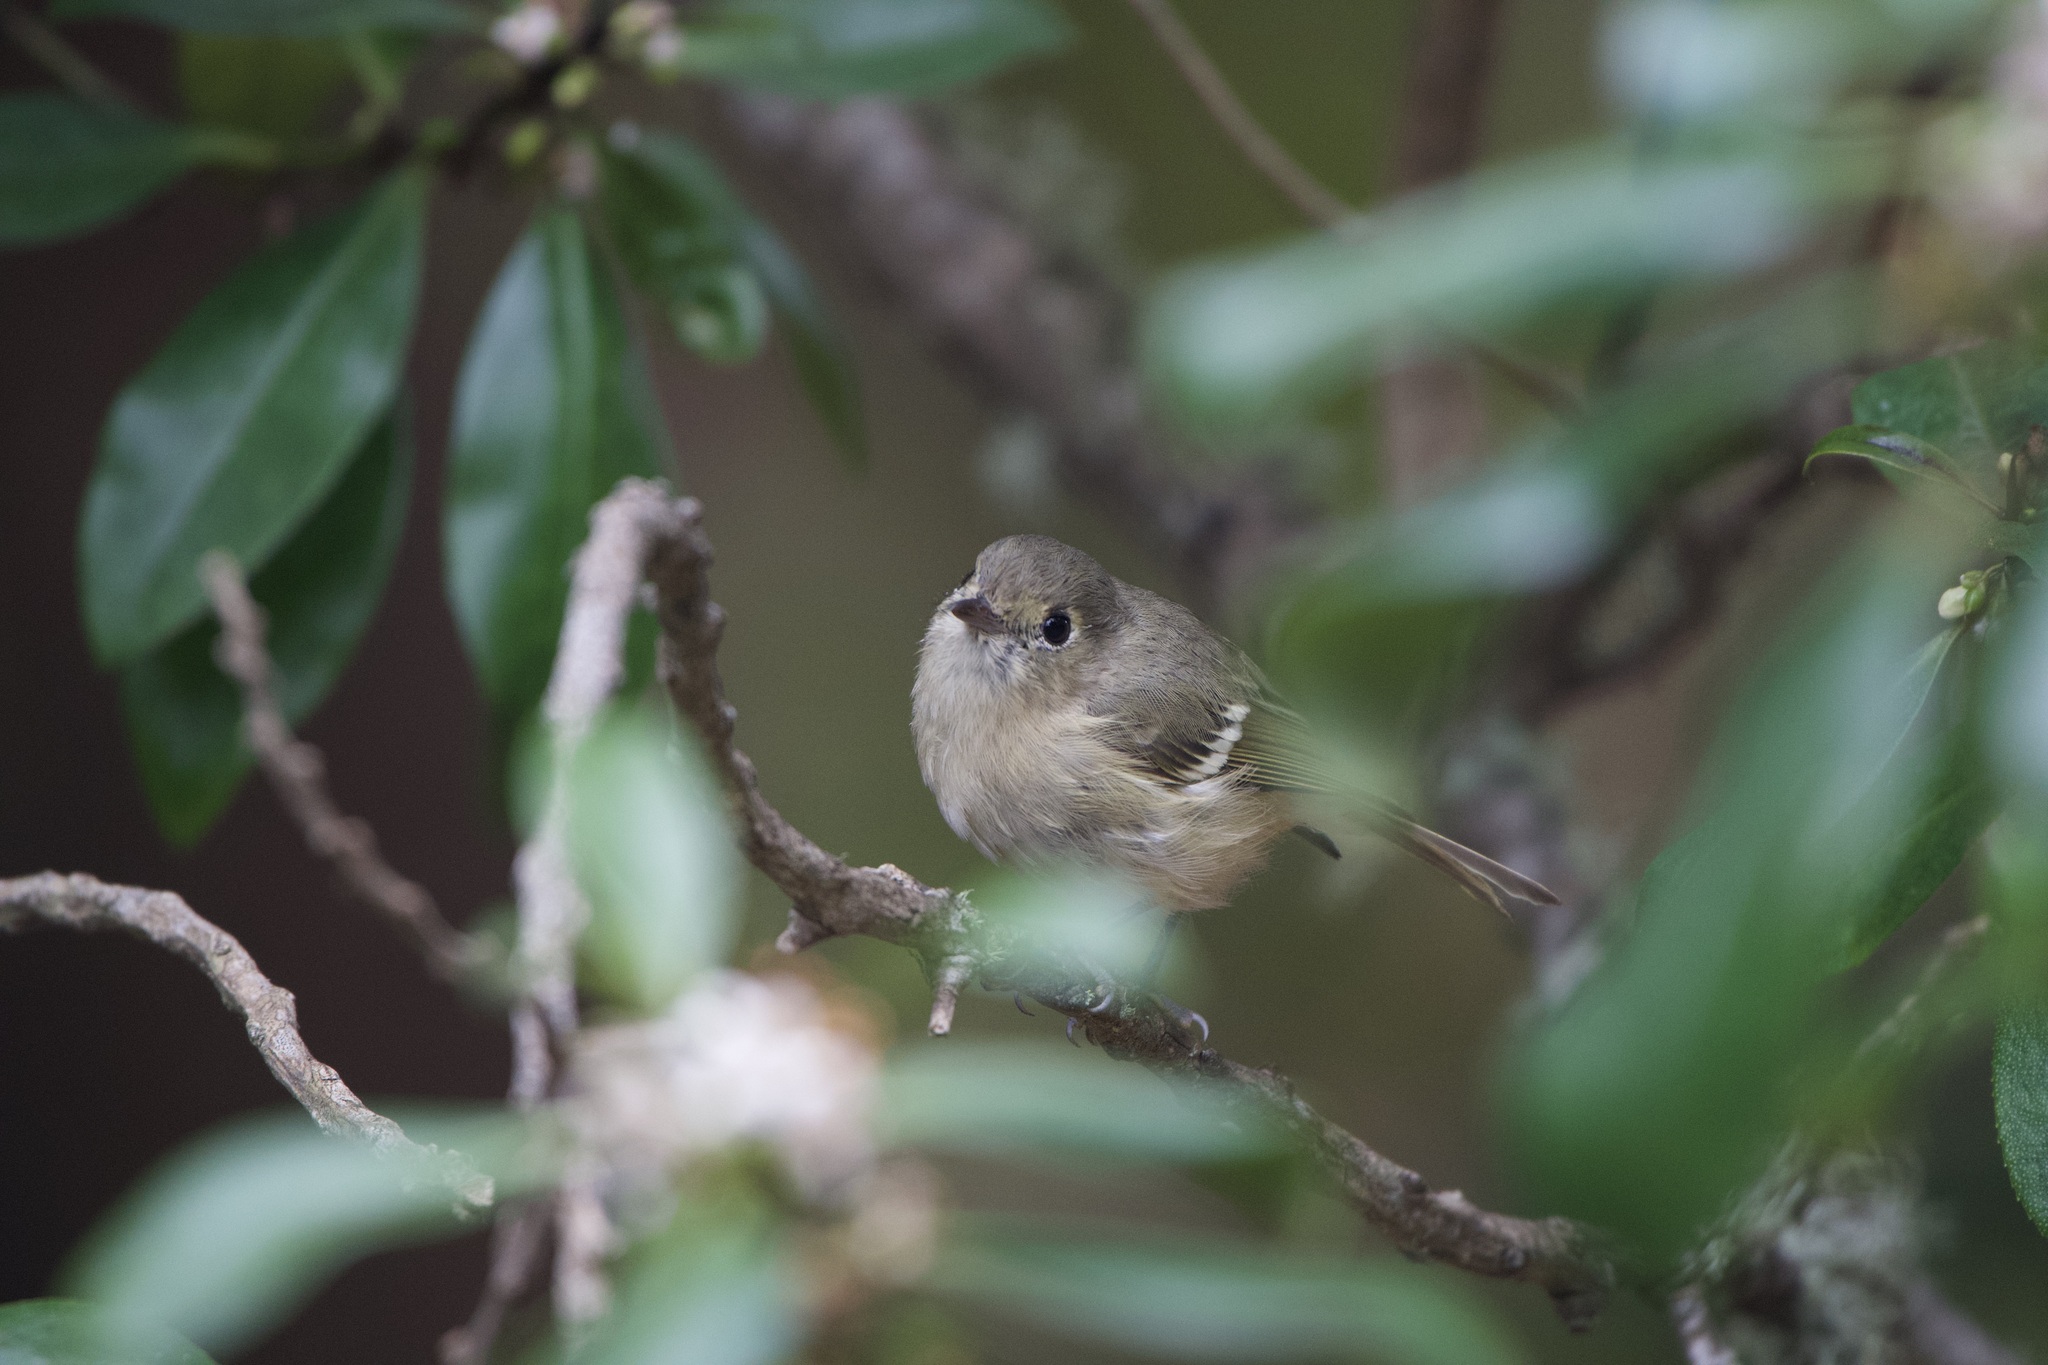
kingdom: Animalia
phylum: Chordata
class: Aves
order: Passeriformes
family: Vireonidae
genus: Vireo
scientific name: Vireo huttoni
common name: Hutton's vireo
